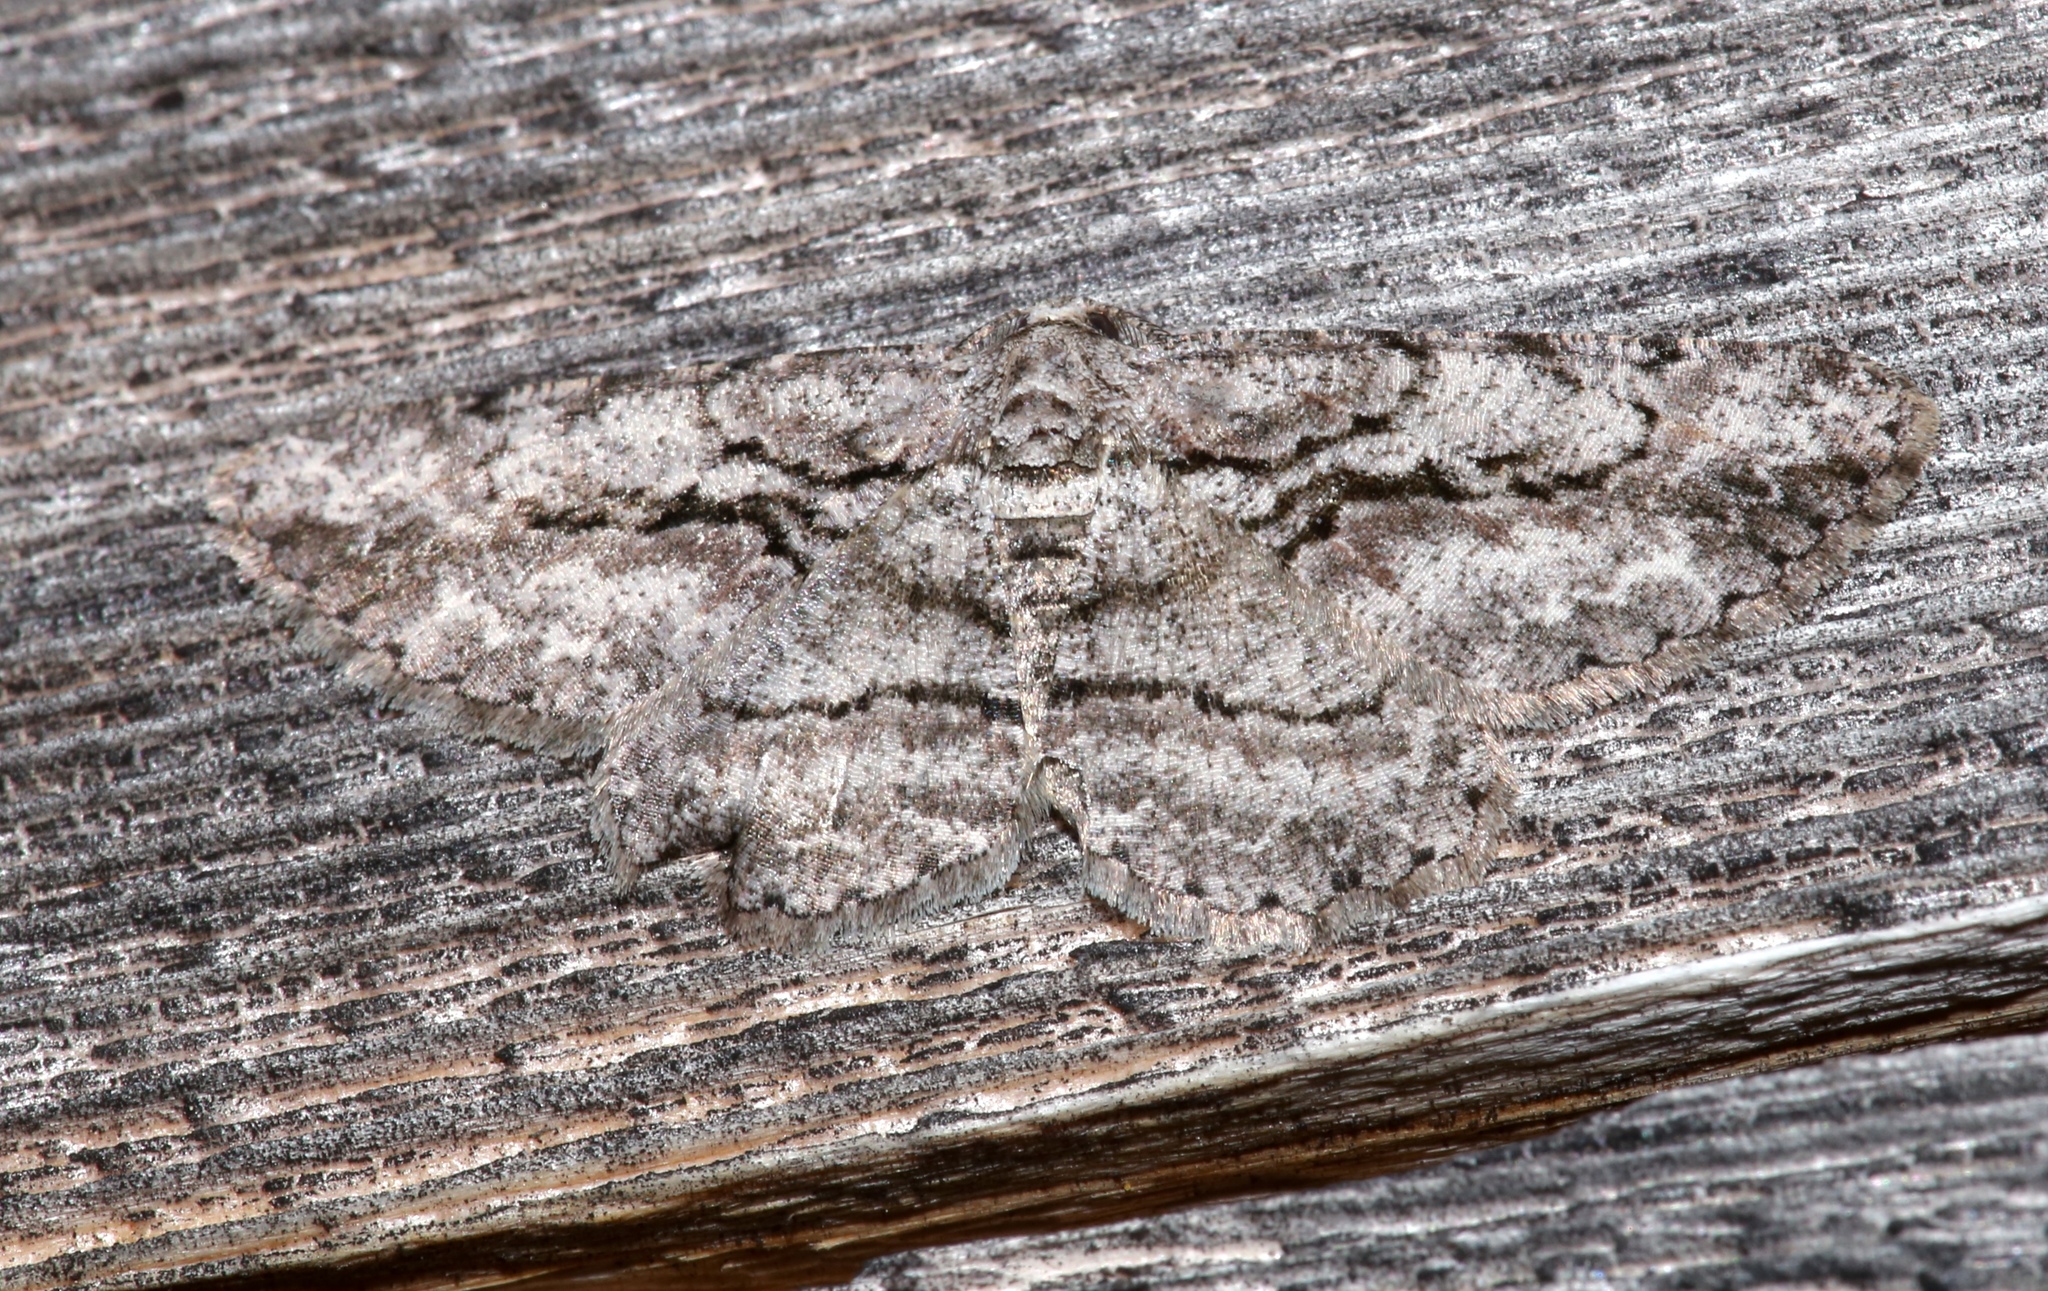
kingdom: Animalia
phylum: Arthropoda
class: Insecta
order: Lepidoptera
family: Geometridae
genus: Anavitrinella
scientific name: Anavitrinella pampinaria
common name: Common gray
